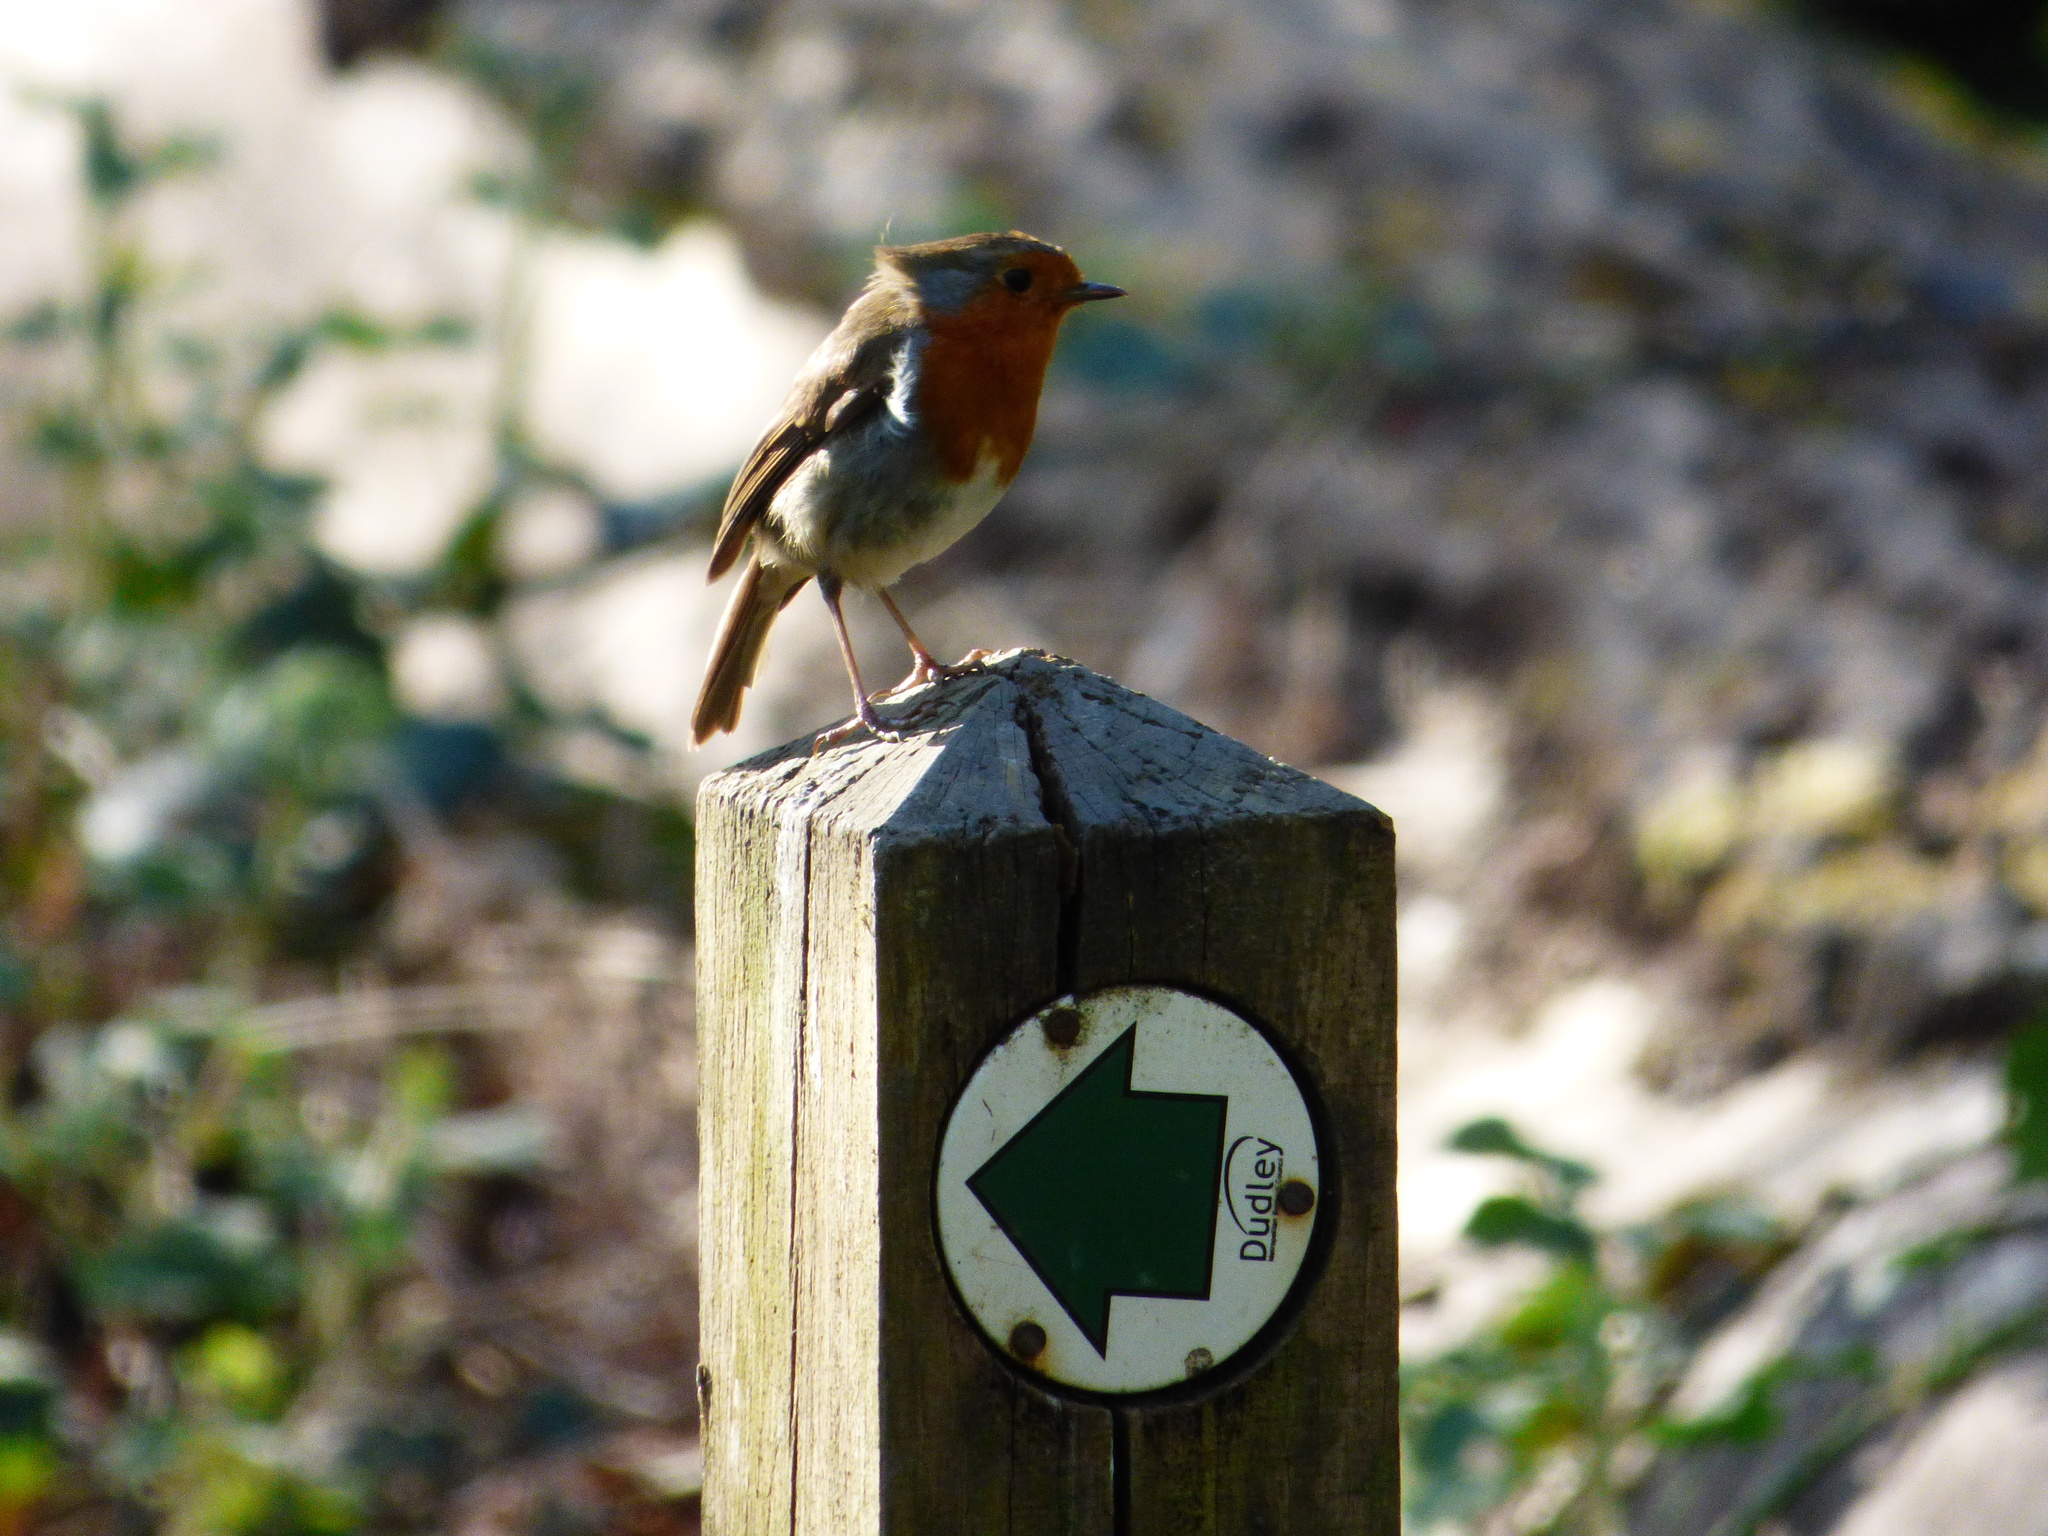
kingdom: Animalia
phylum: Chordata
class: Aves
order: Passeriformes
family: Muscicapidae
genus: Erithacus
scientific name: Erithacus rubecula
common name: European robin
